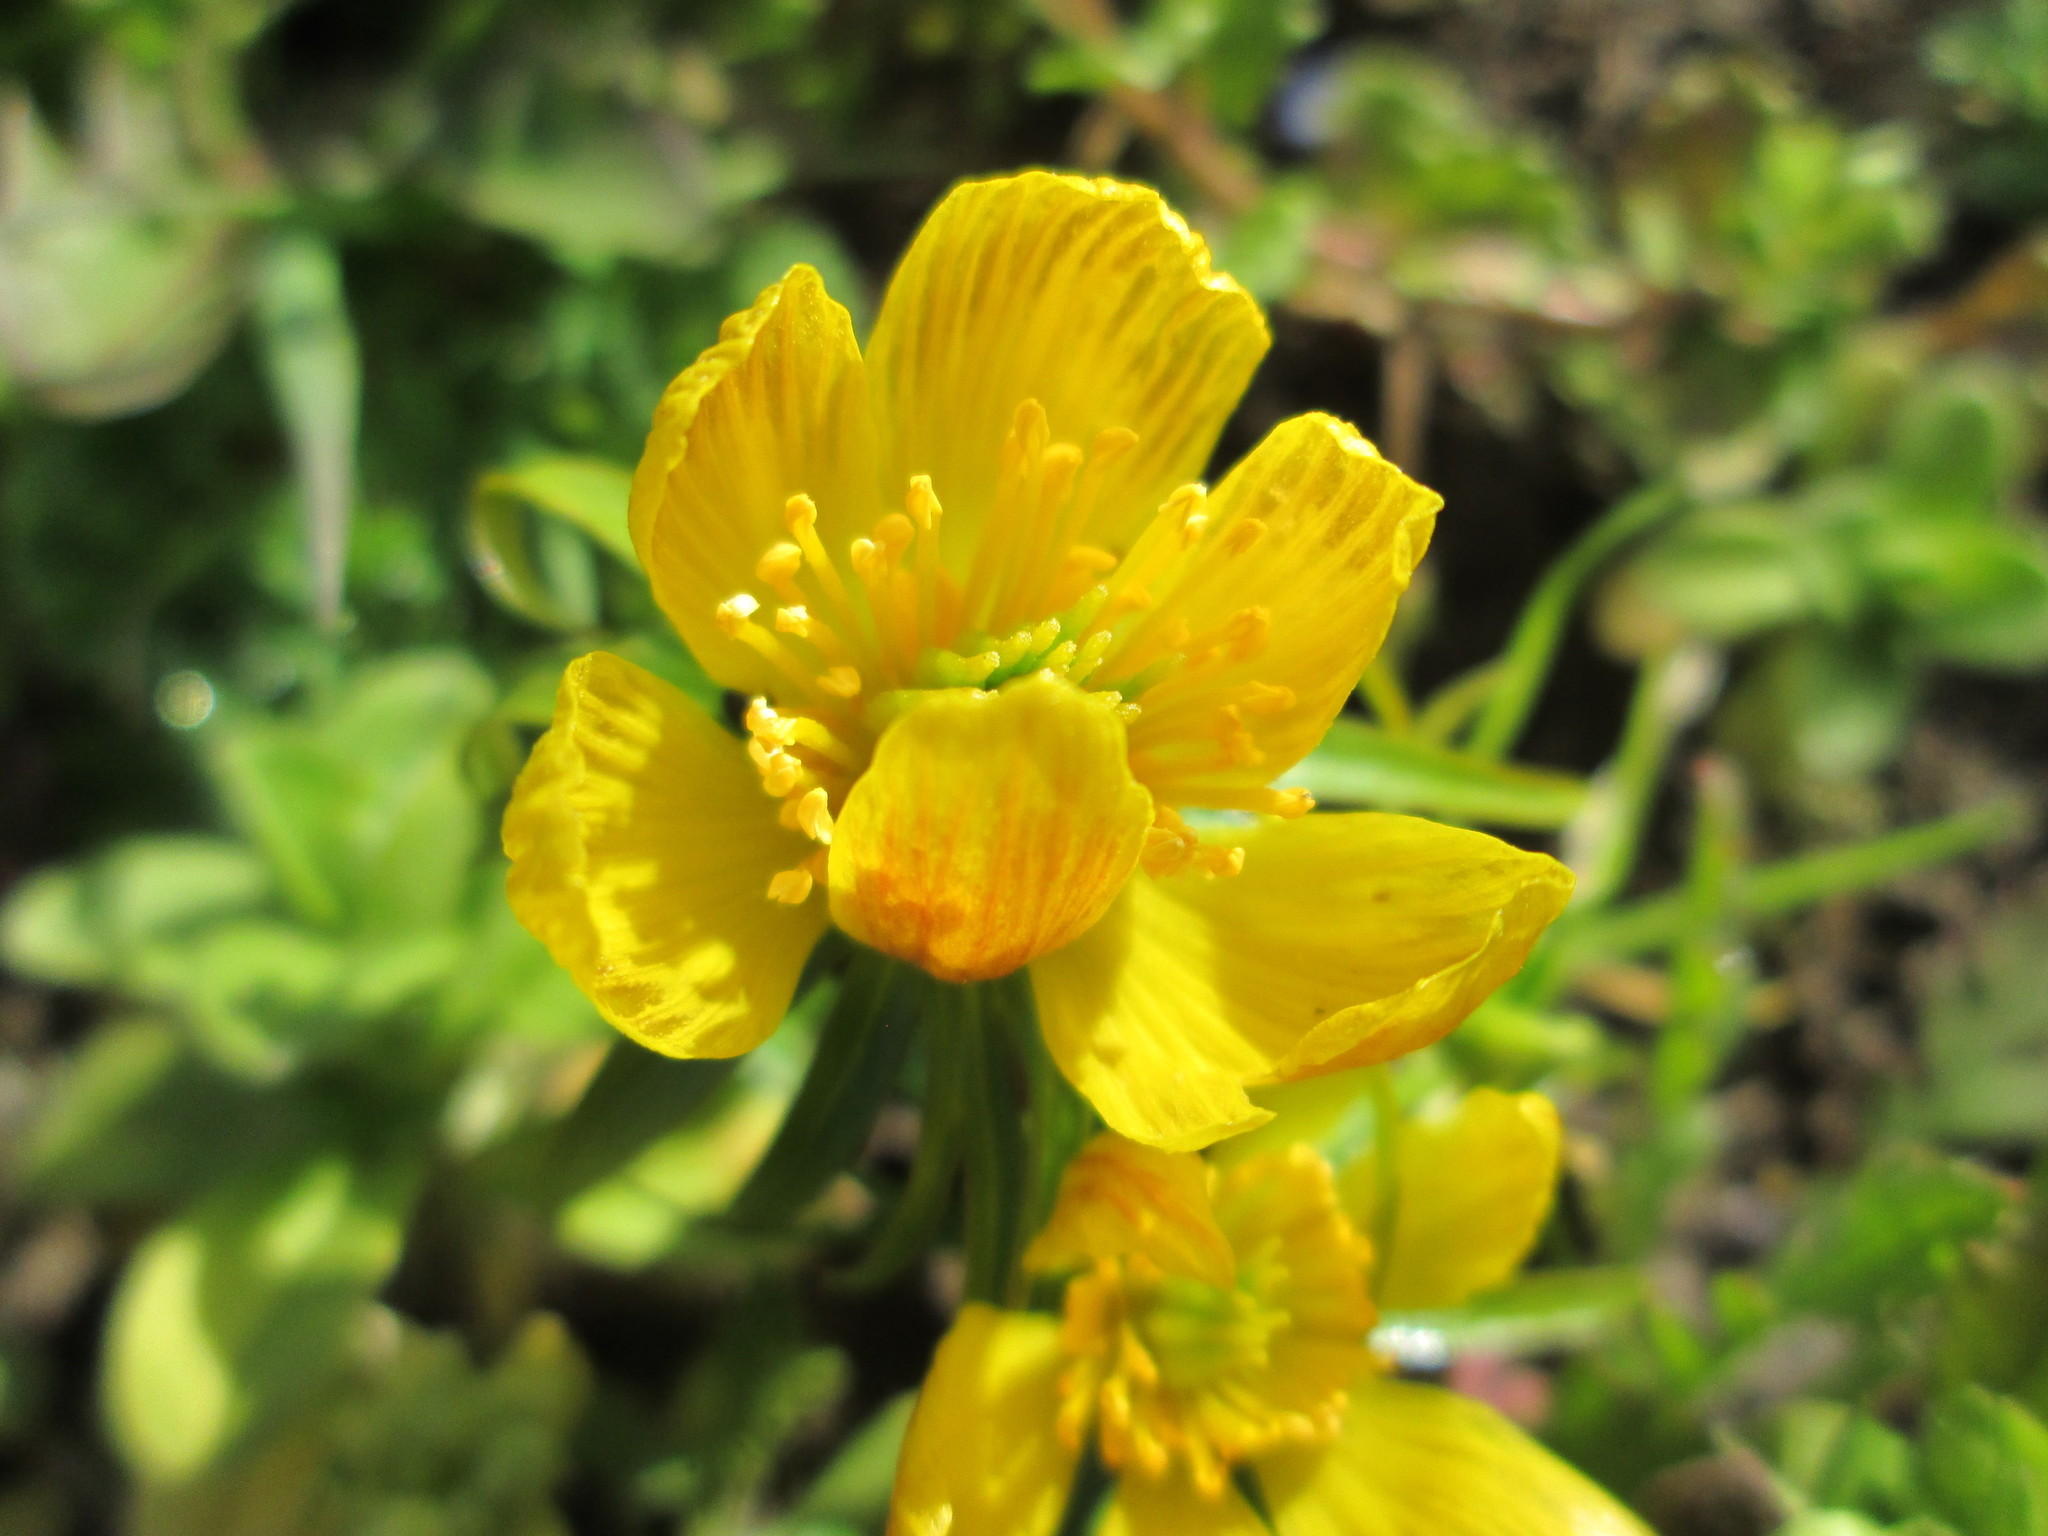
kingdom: Plantae
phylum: Tracheophyta
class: Magnoliopsida
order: Ranunculales
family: Ranunculaceae
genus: Eranthis
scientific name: Eranthis hyemalis
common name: Winter aconite
